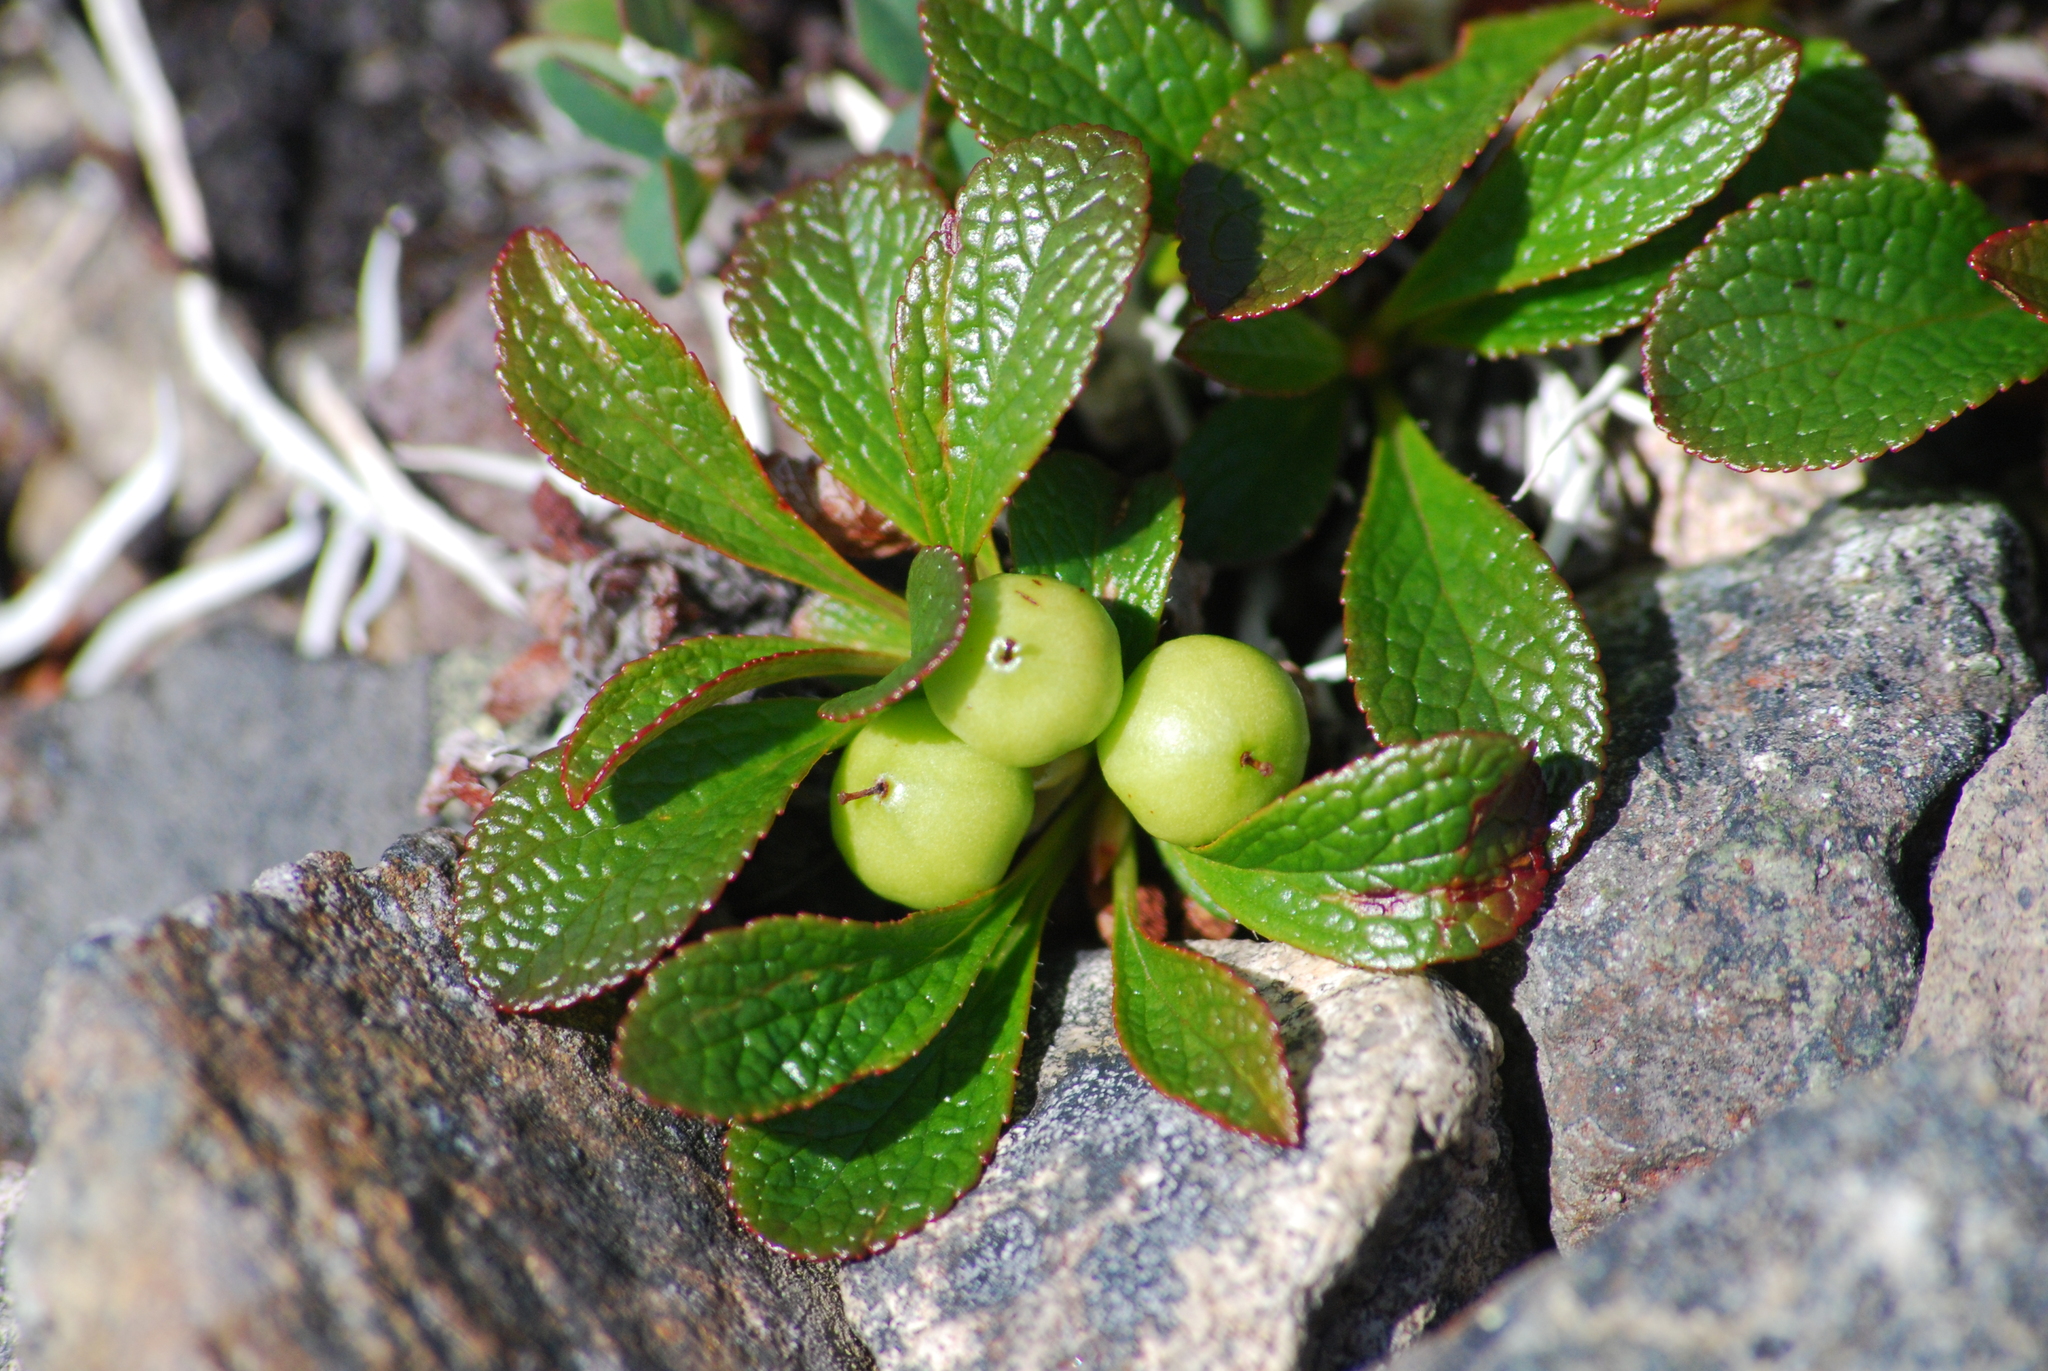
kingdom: Plantae
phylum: Tracheophyta
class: Magnoliopsida
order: Ericales
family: Ericaceae
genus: Arctostaphylos
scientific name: Arctostaphylos alpinus
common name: Alpine bearberry
